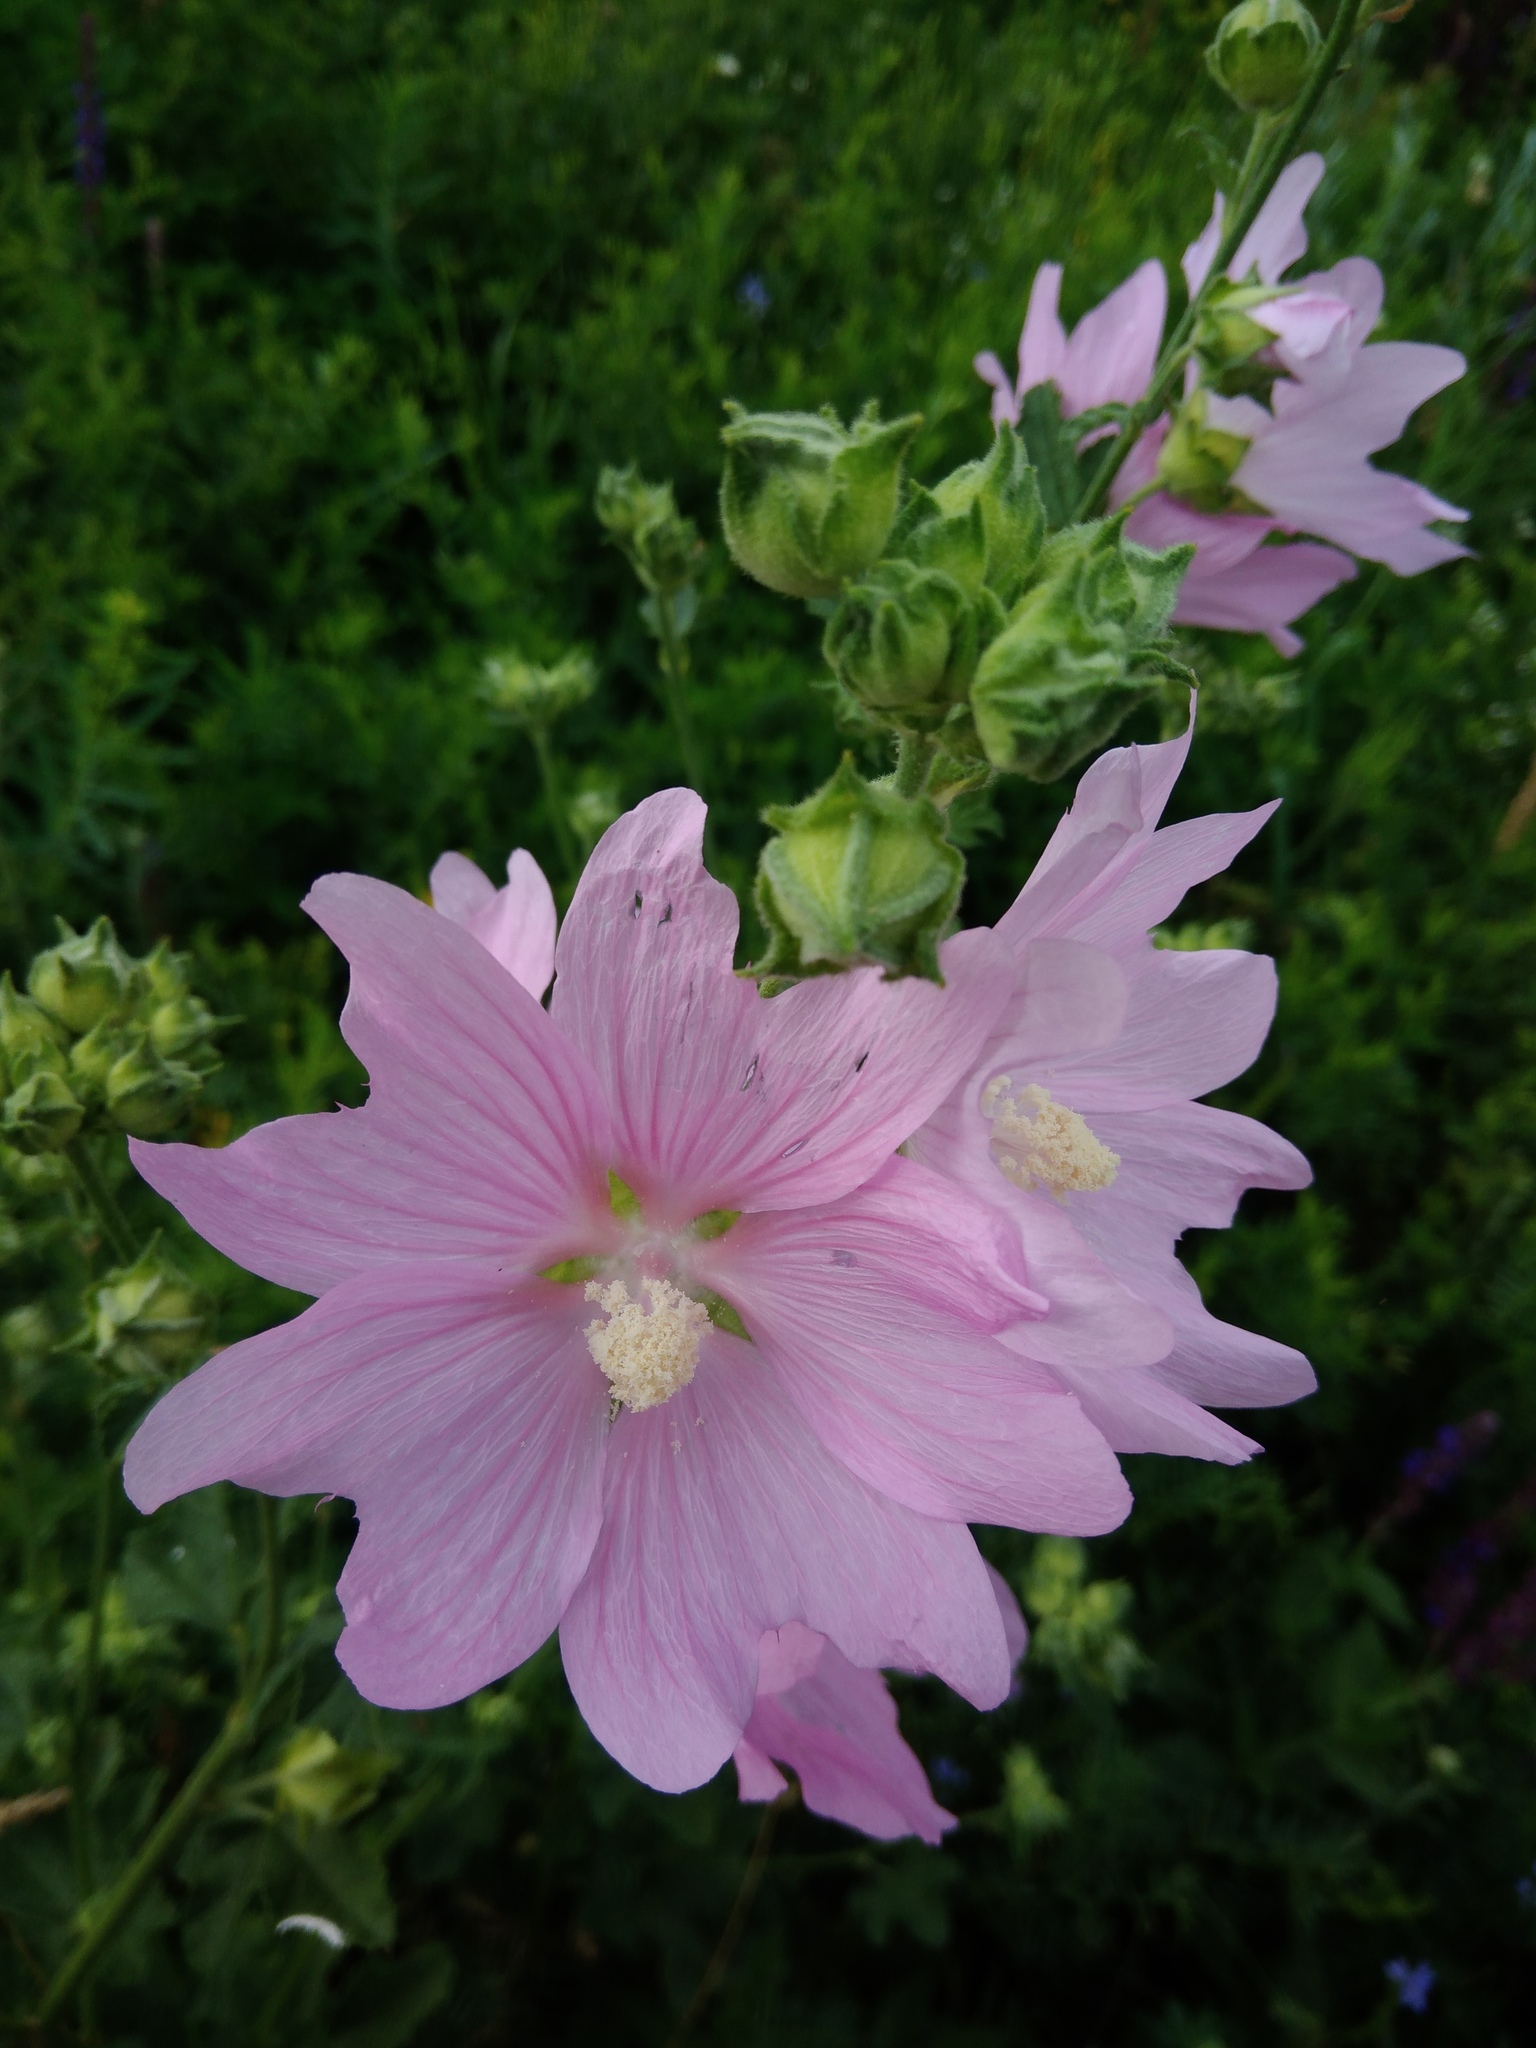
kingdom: Plantae
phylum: Tracheophyta
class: Magnoliopsida
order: Malvales
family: Malvaceae
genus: Malva
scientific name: Malva thuringiaca
